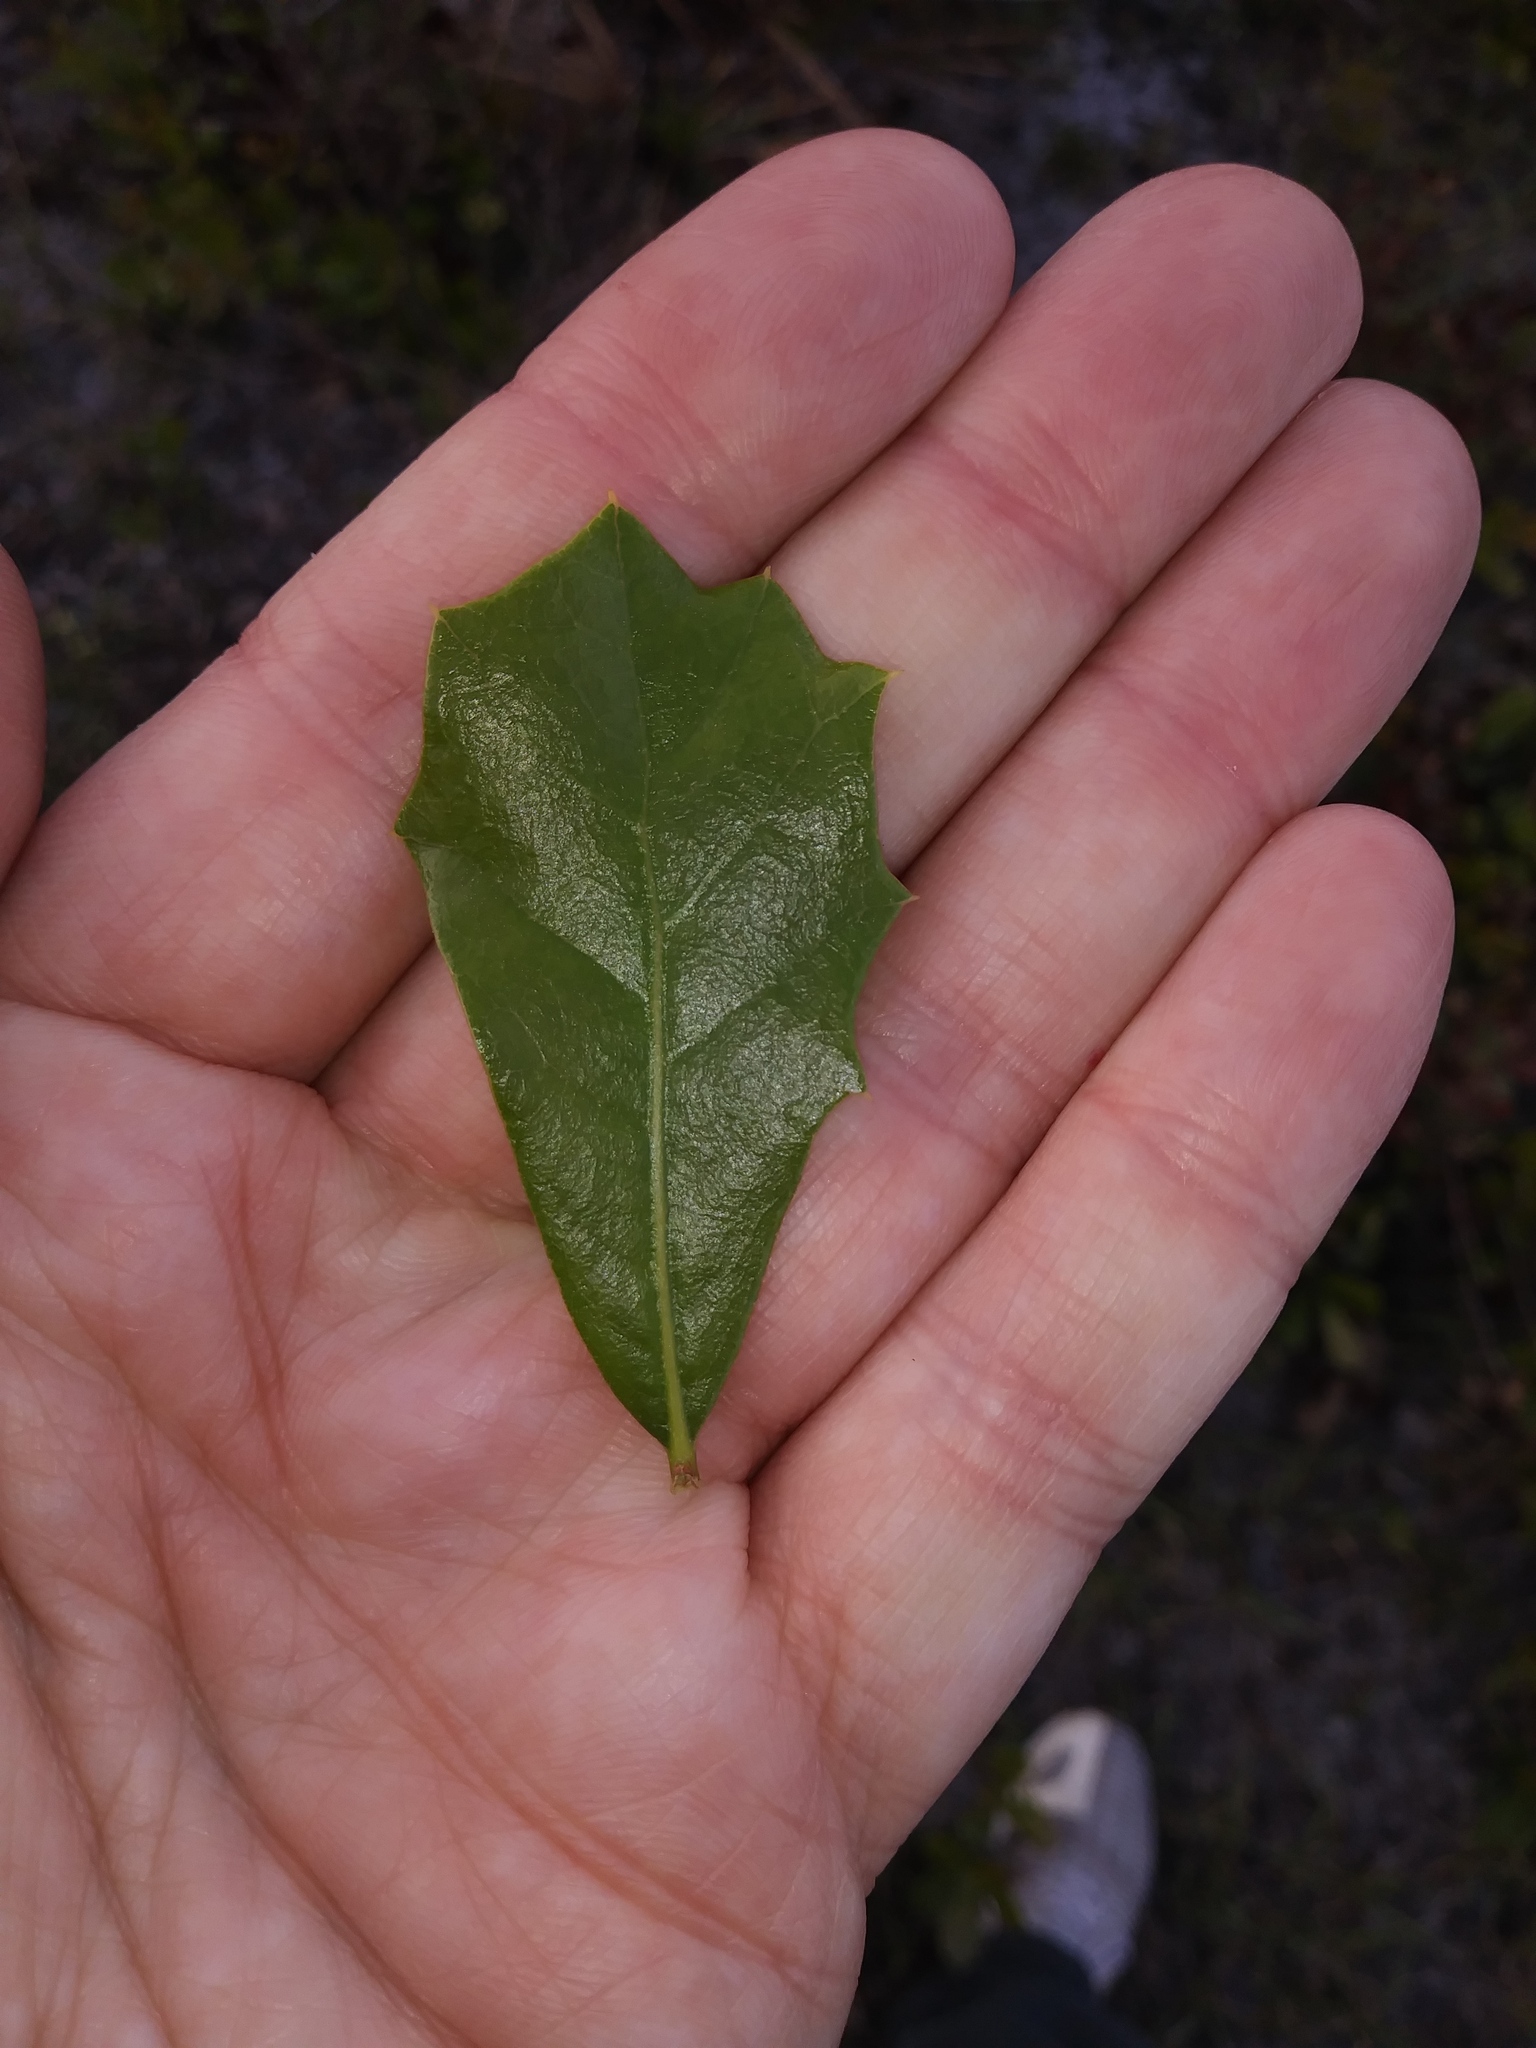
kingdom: Plantae
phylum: Tracheophyta
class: Magnoliopsida
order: Fagales
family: Fagaceae
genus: Quercus
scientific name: Quercus minima
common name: Dwarf live oak
